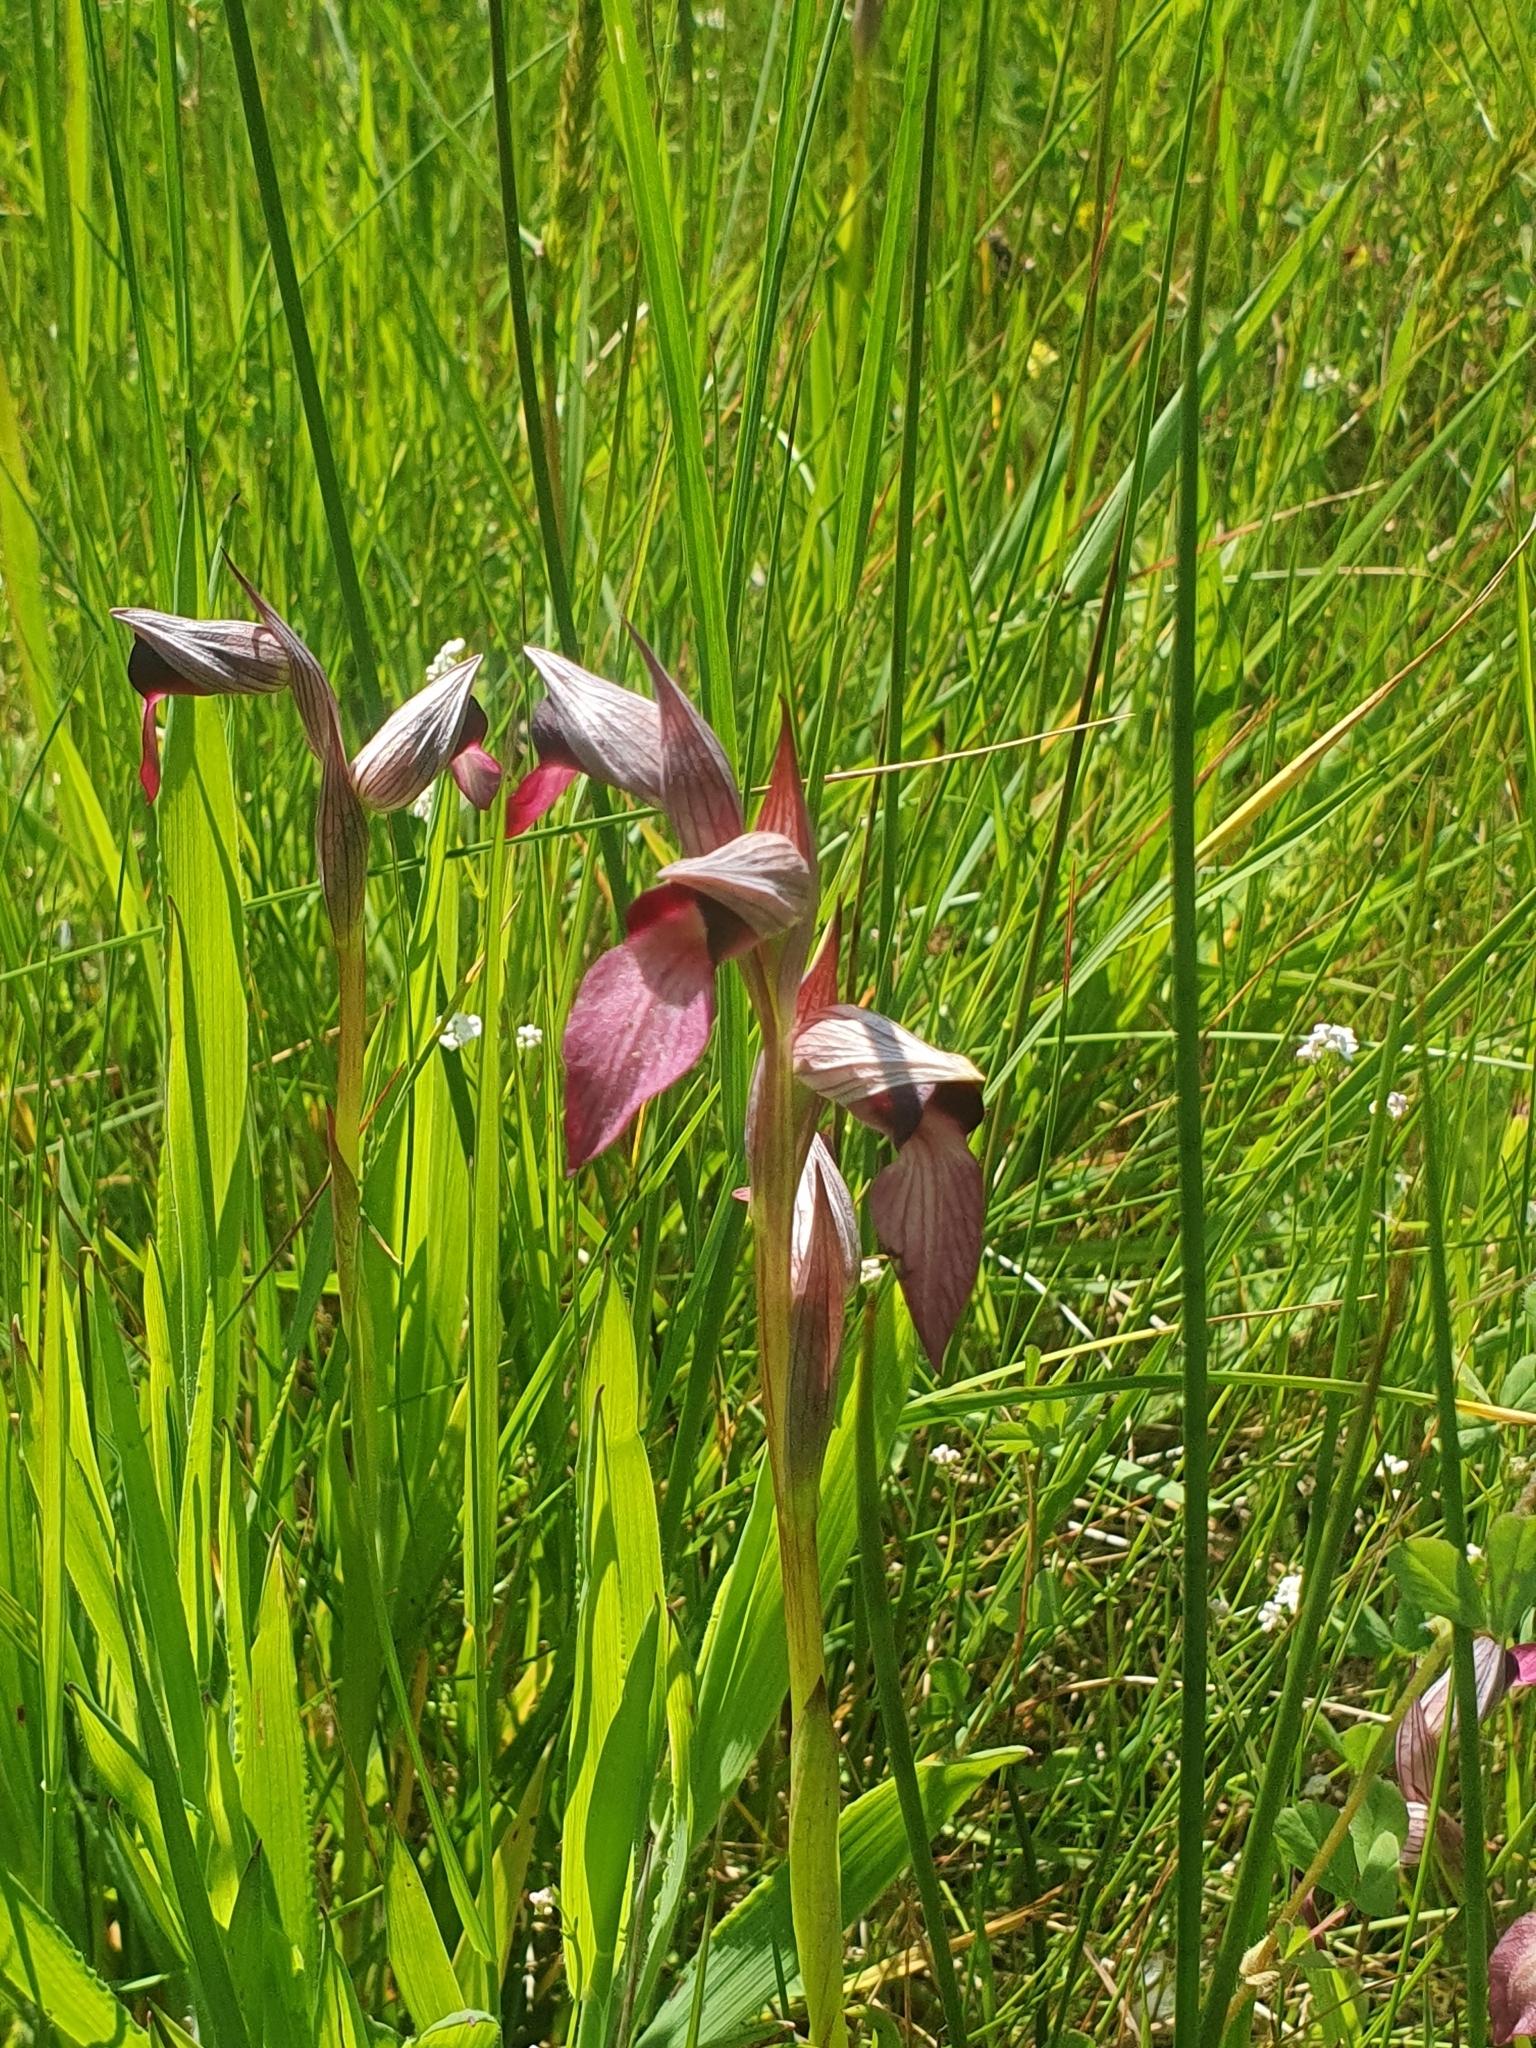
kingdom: Plantae
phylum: Tracheophyta
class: Liliopsida
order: Asparagales
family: Orchidaceae
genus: Serapias
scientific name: Serapias lingua
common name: Tongue-orchid
